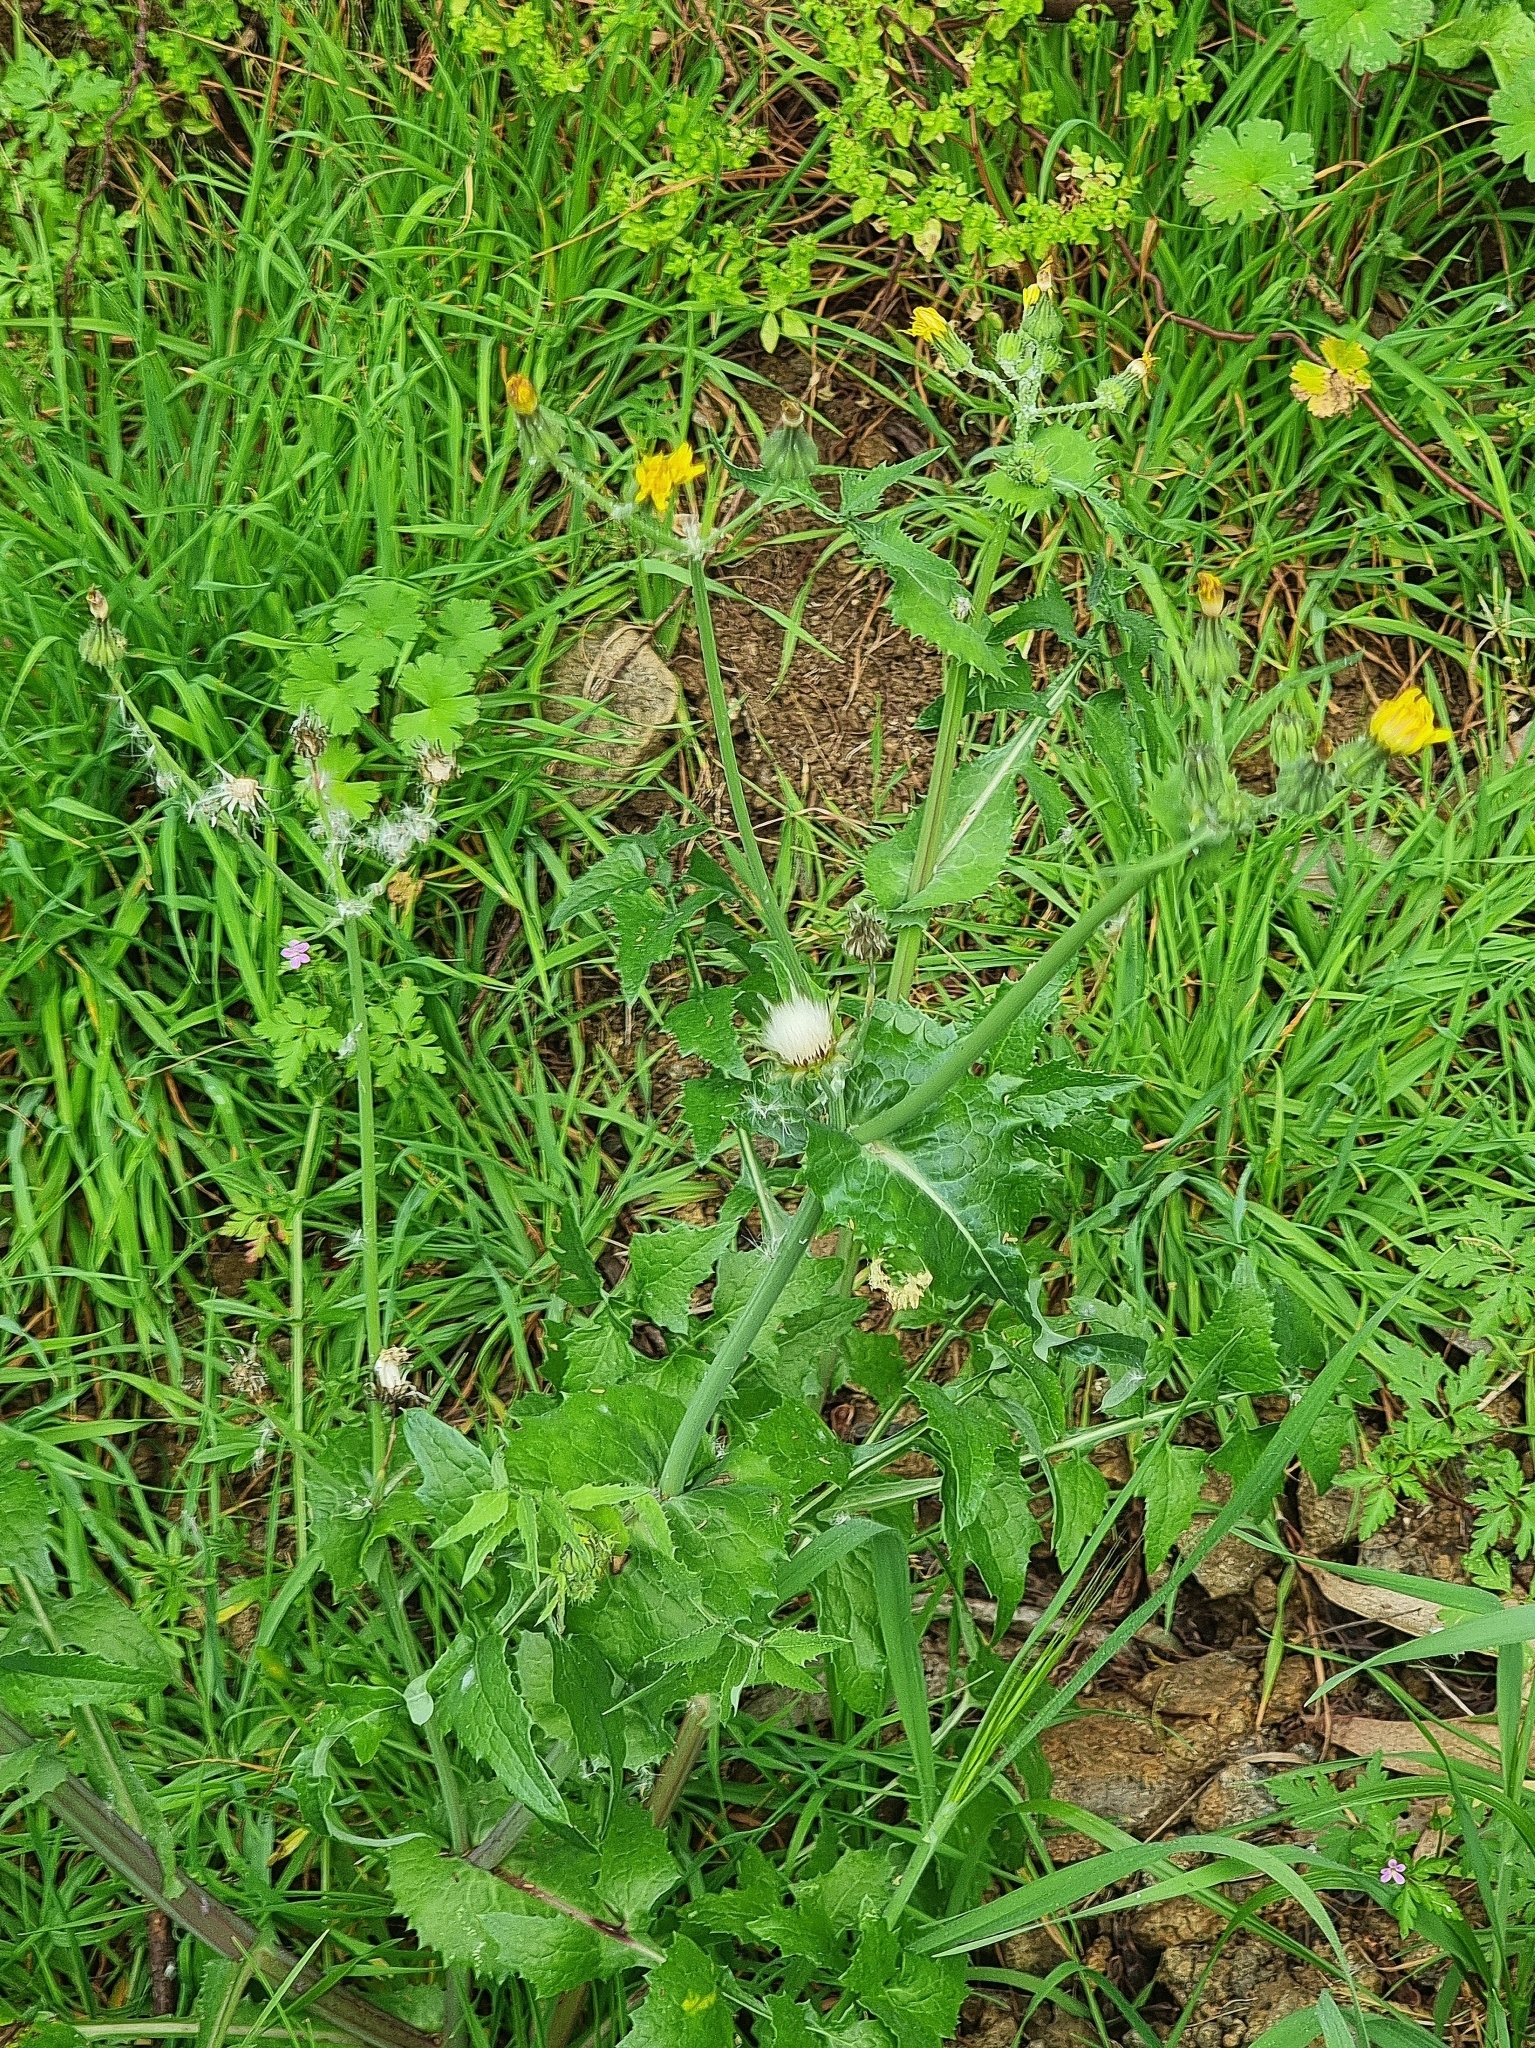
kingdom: Plantae
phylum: Tracheophyta
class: Magnoliopsida
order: Asterales
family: Asteraceae
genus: Sonchus
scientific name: Sonchus oleraceus
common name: Common sowthistle
